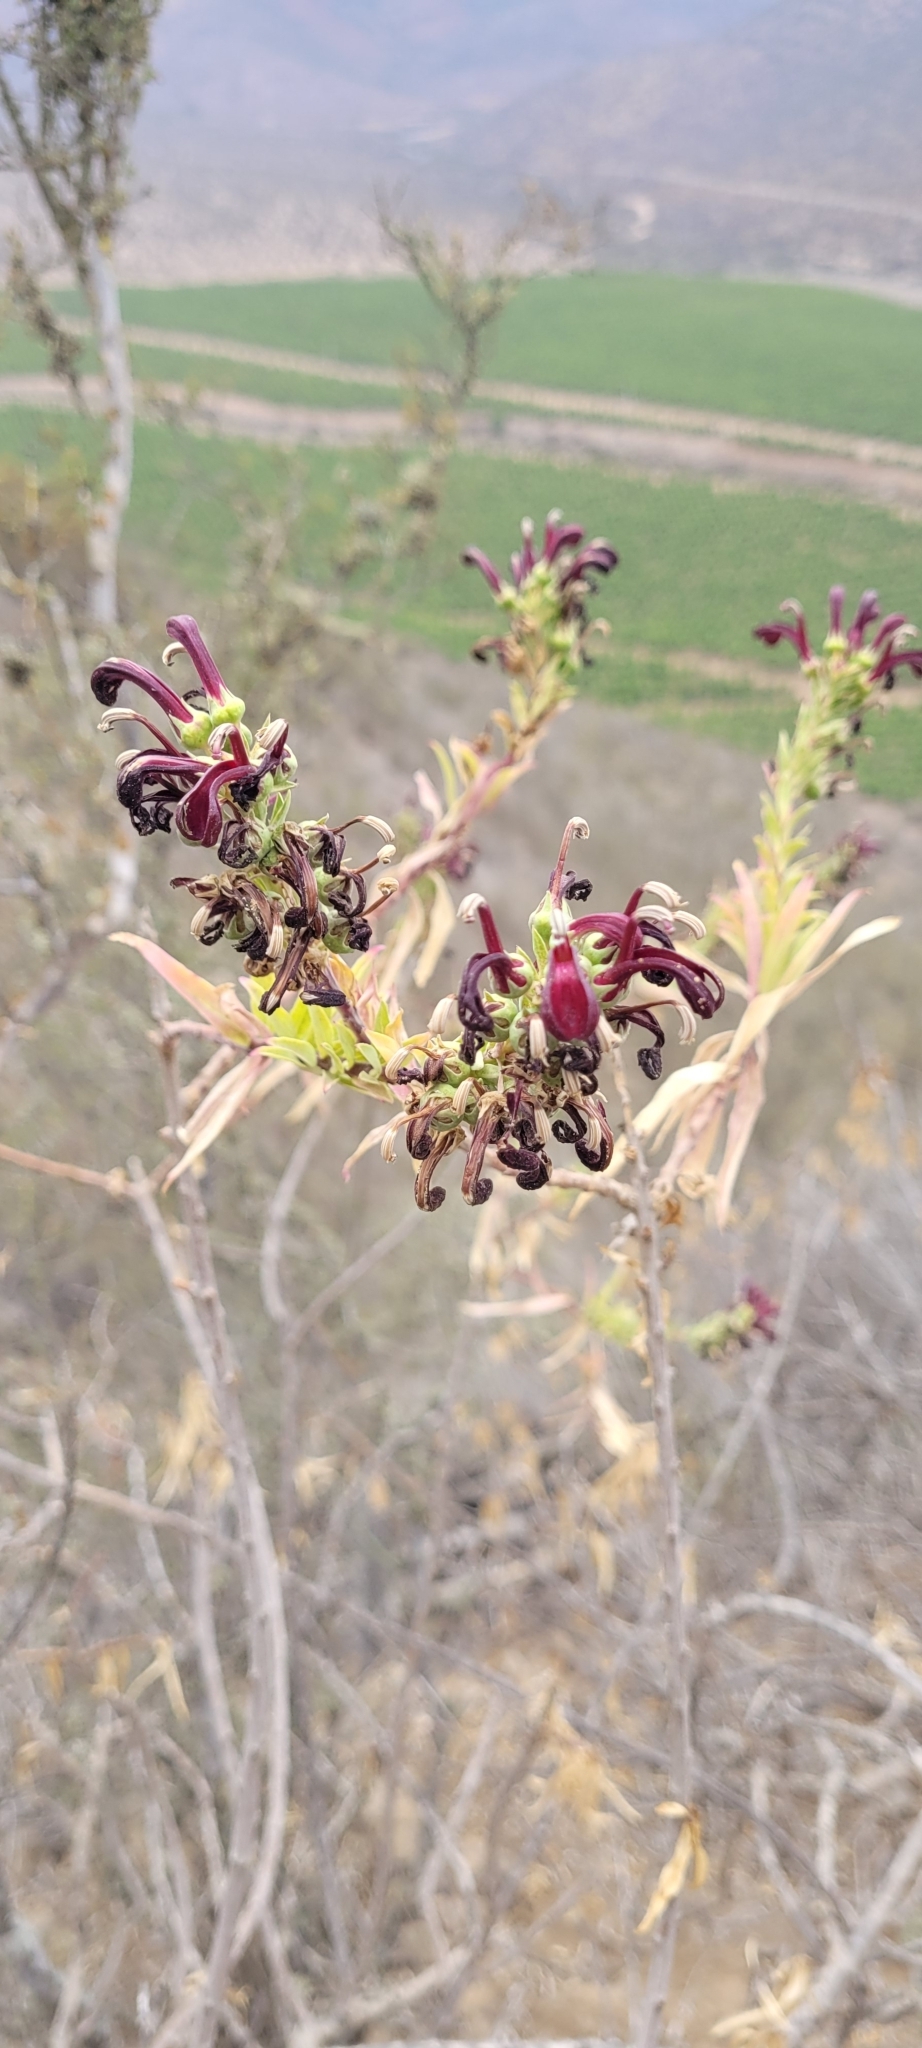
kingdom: Plantae
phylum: Tracheophyta
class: Magnoliopsida
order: Asterales
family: Campanulaceae
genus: Lobelia
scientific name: Lobelia polyphylla
